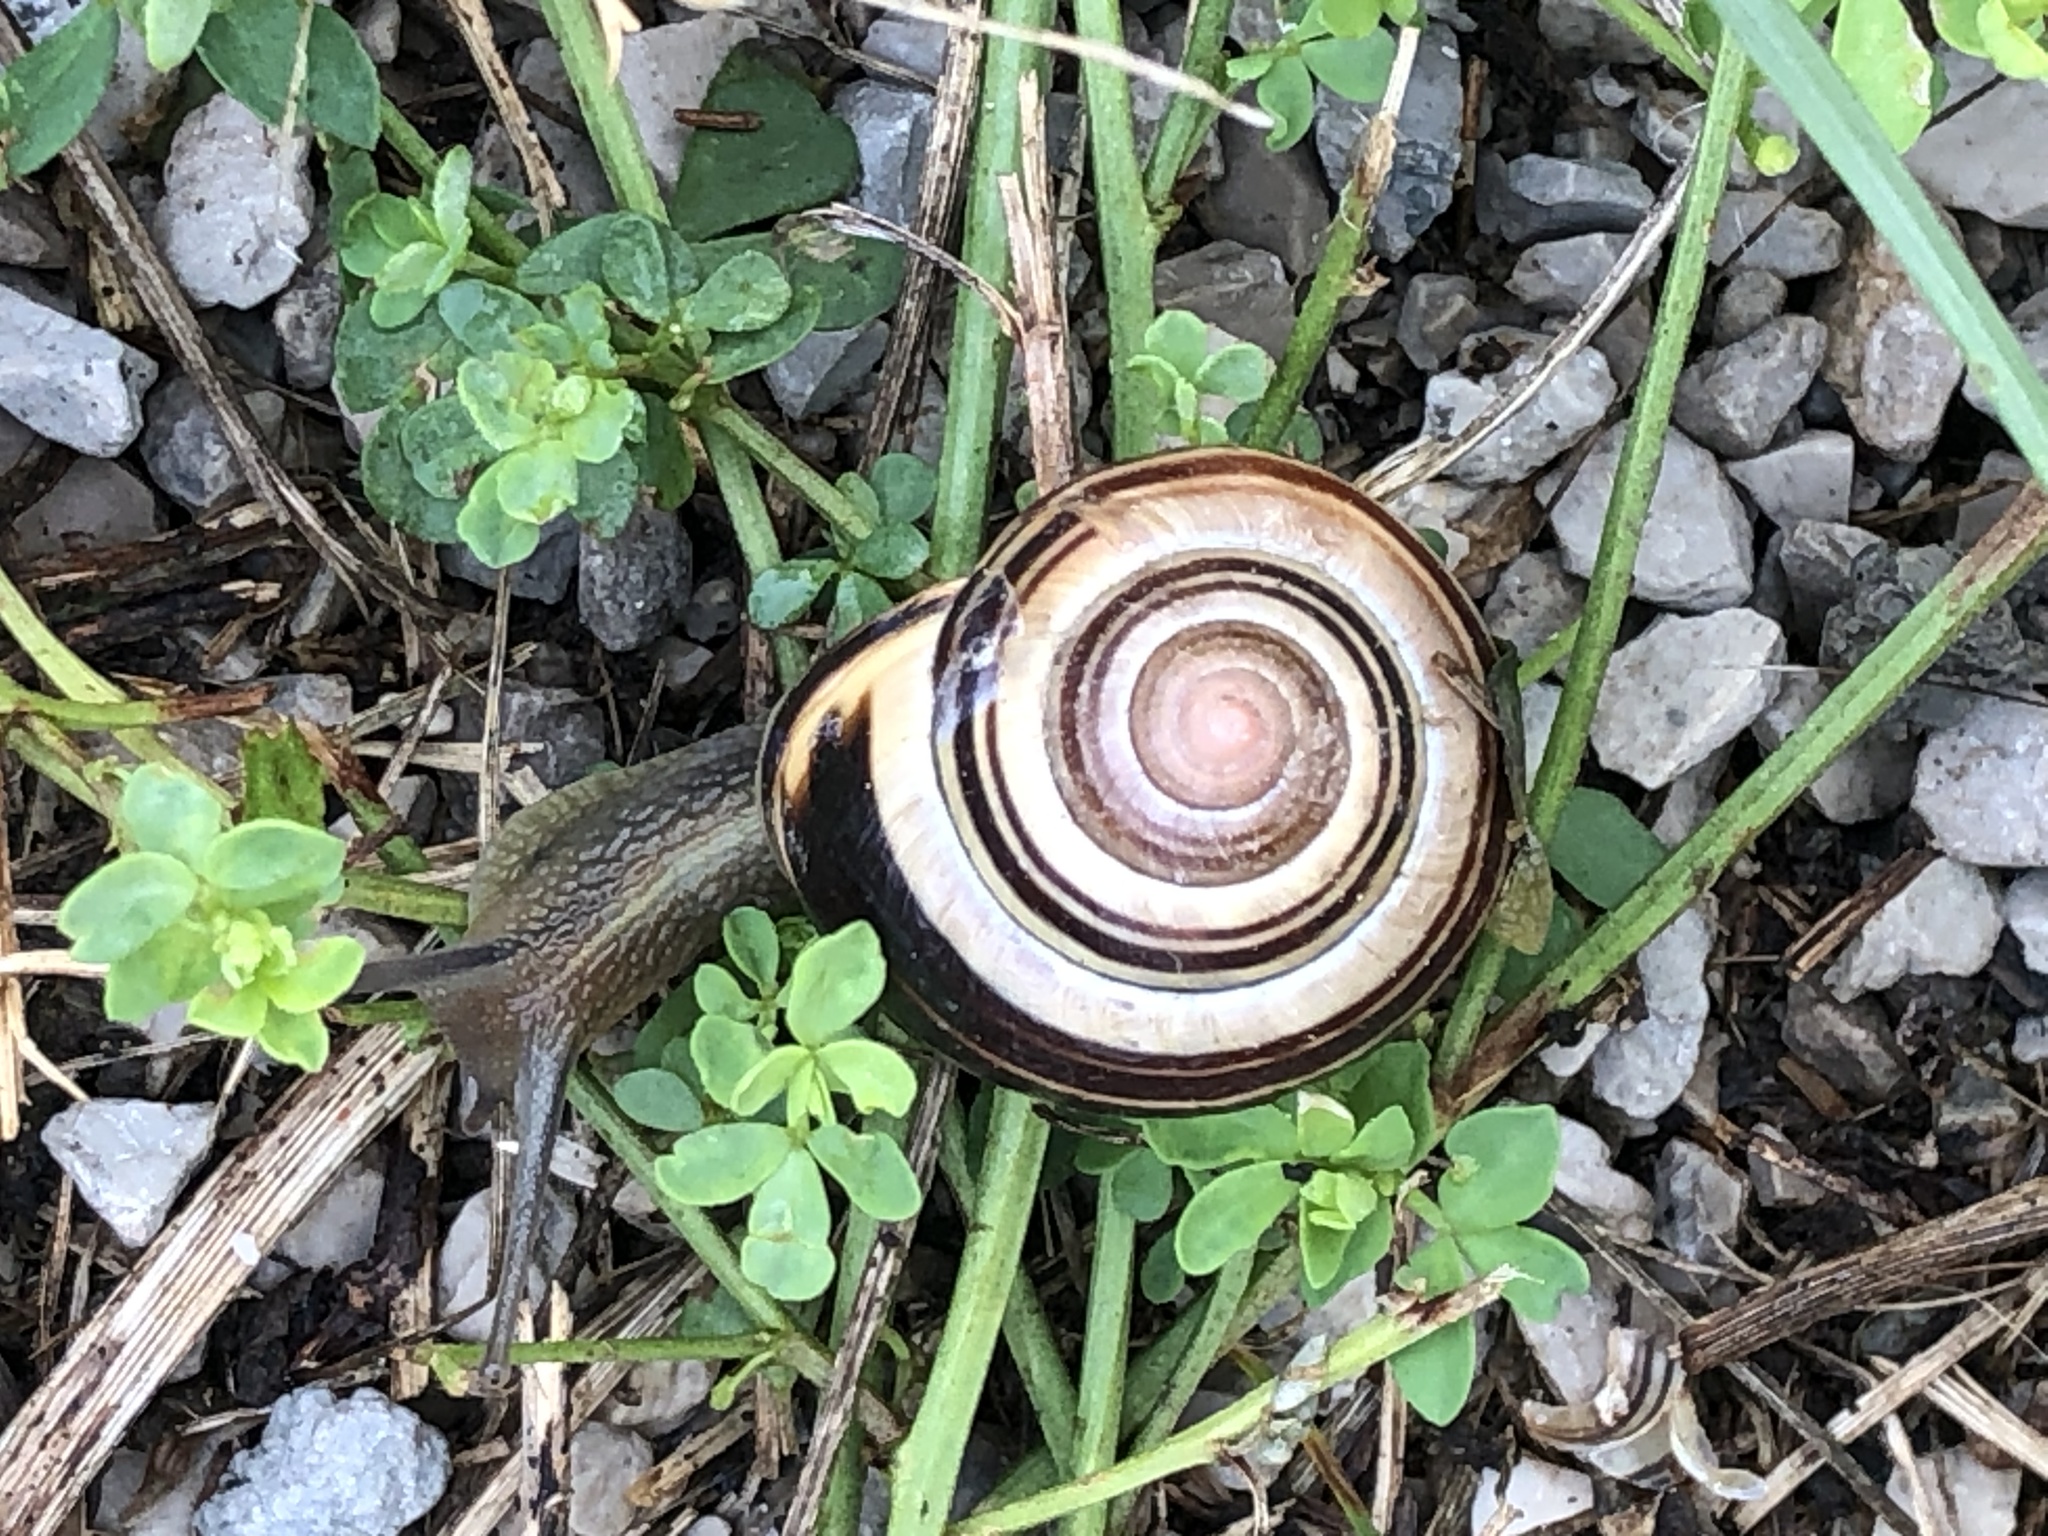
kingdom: Animalia
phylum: Mollusca
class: Gastropoda
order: Stylommatophora
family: Helicidae
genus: Cepaea
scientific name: Cepaea nemoralis
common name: Grovesnail
